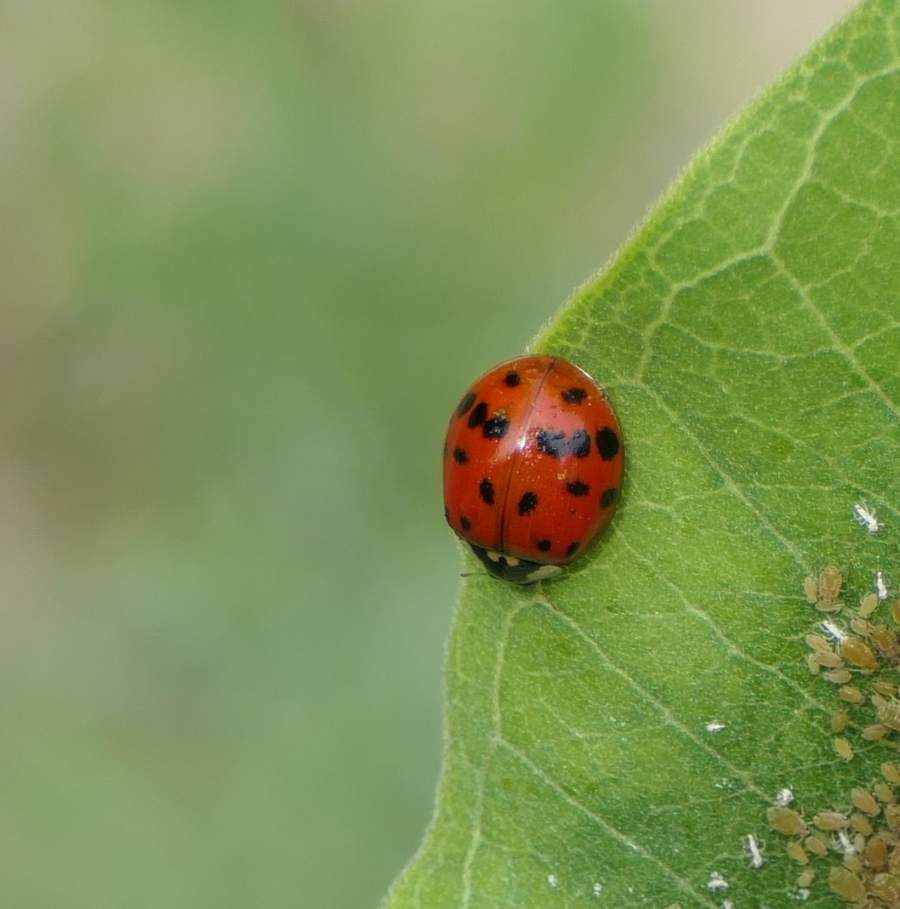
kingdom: Animalia
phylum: Arthropoda
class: Insecta
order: Coleoptera
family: Coccinellidae
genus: Harmonia
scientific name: Harmonia axyridis
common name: Harlequin ladybird
